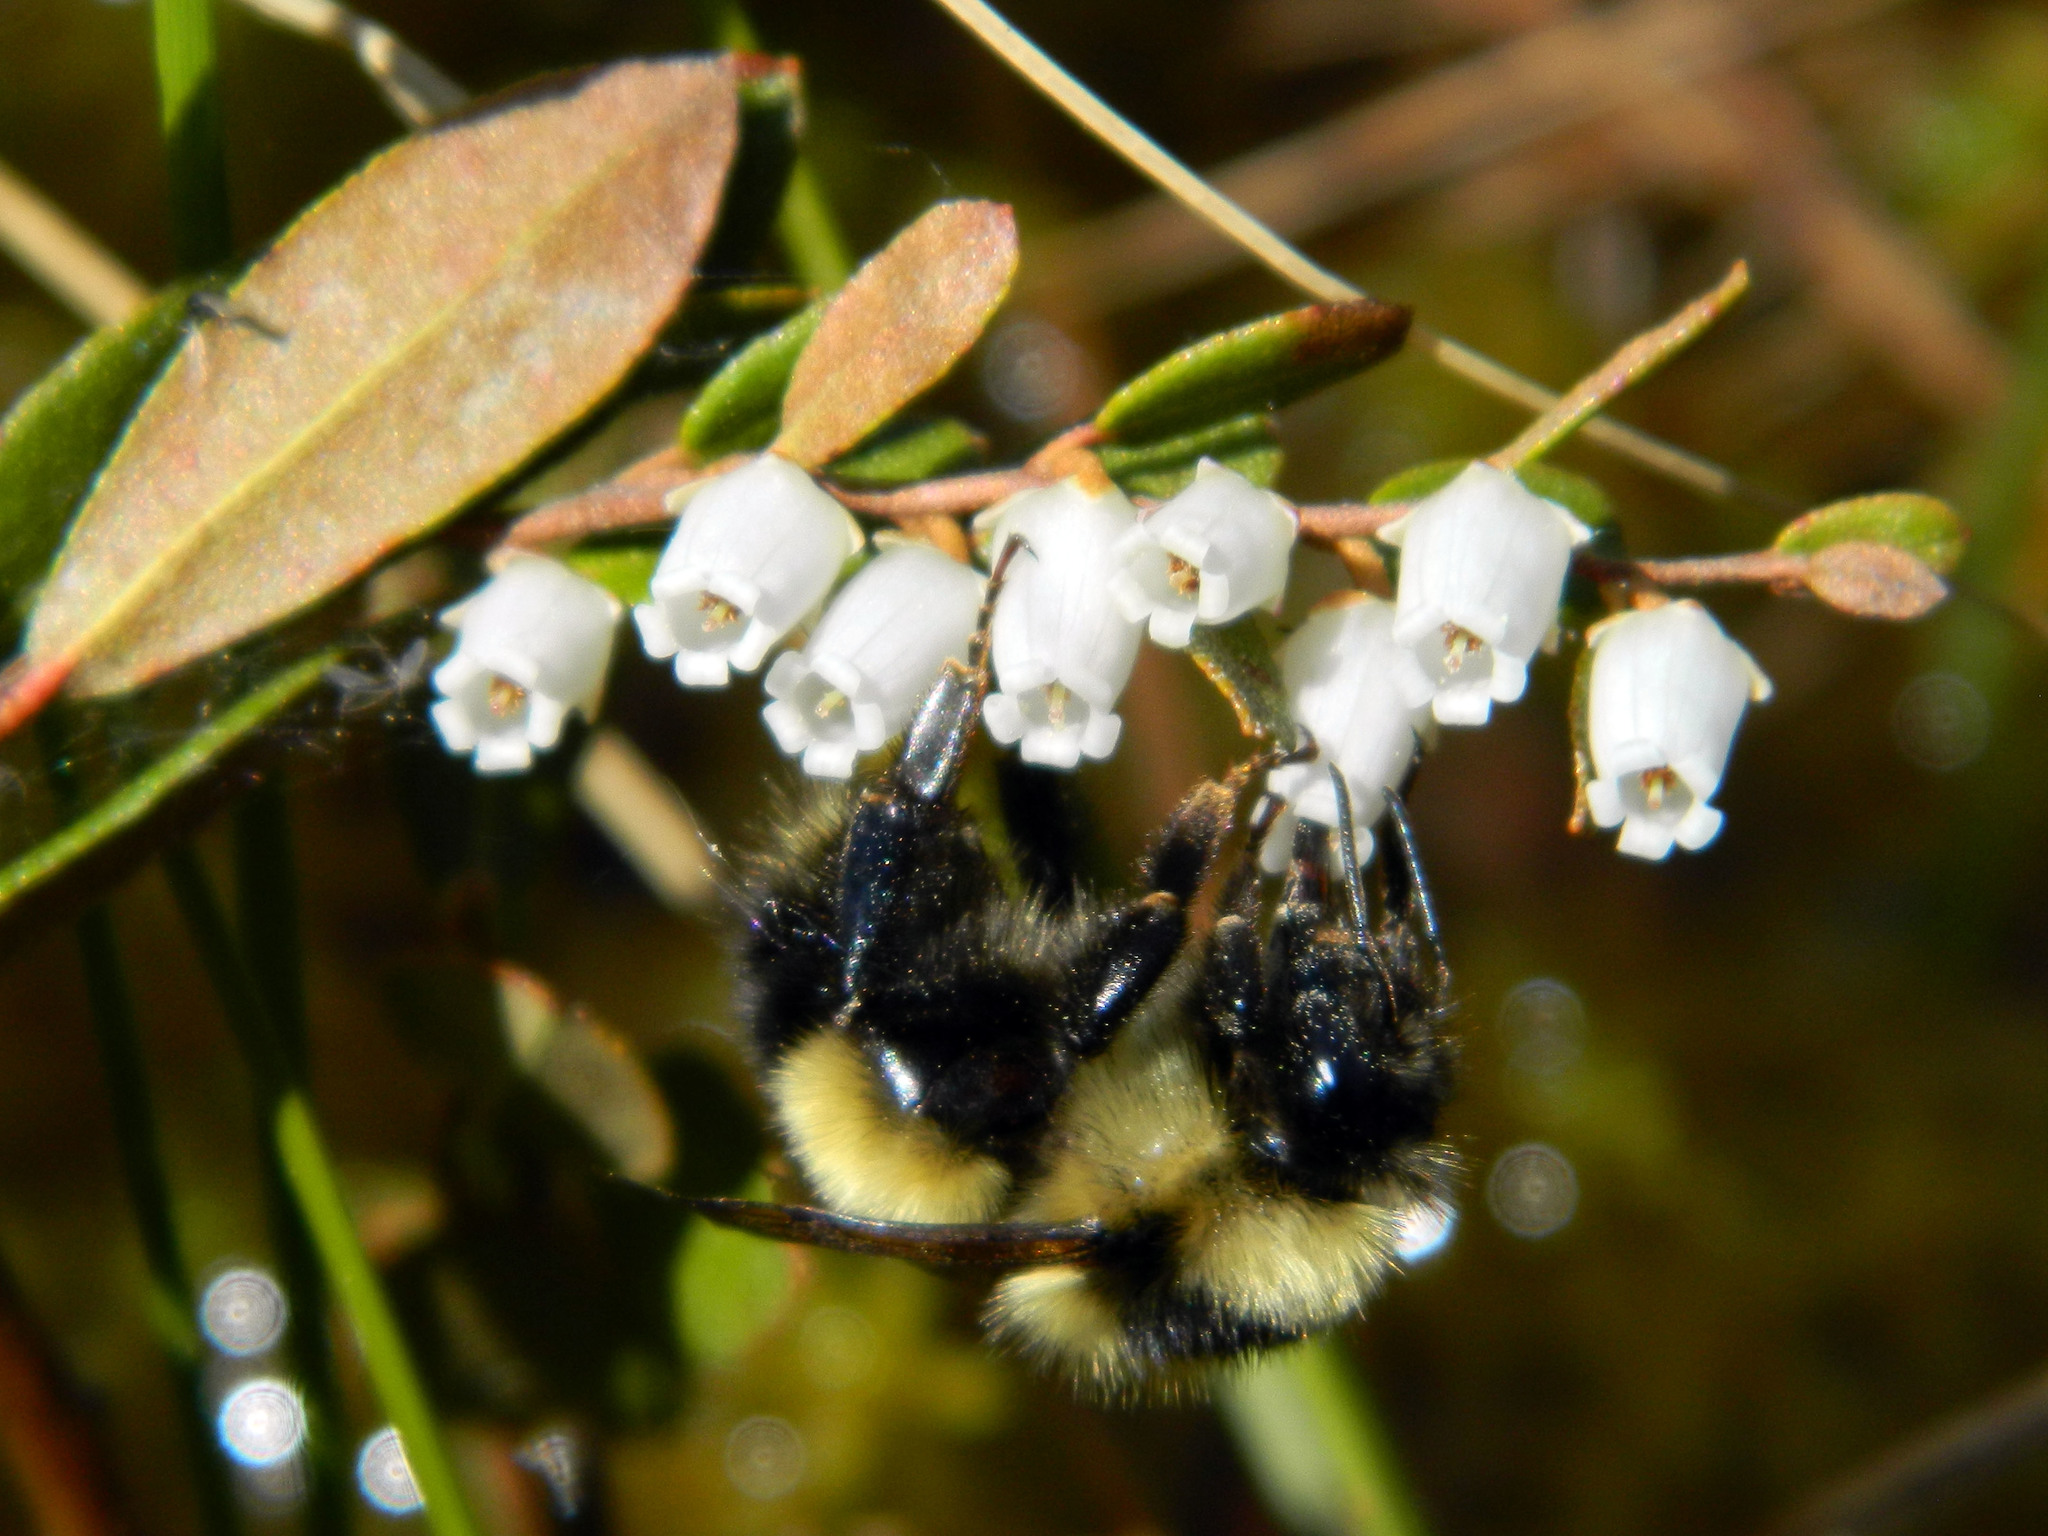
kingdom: Animalia
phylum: Arthropoda
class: Insecta
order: Hymenoptera
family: Apidae
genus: Bombus
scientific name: Bombus sandersoni
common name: Sanderson bumble bee
